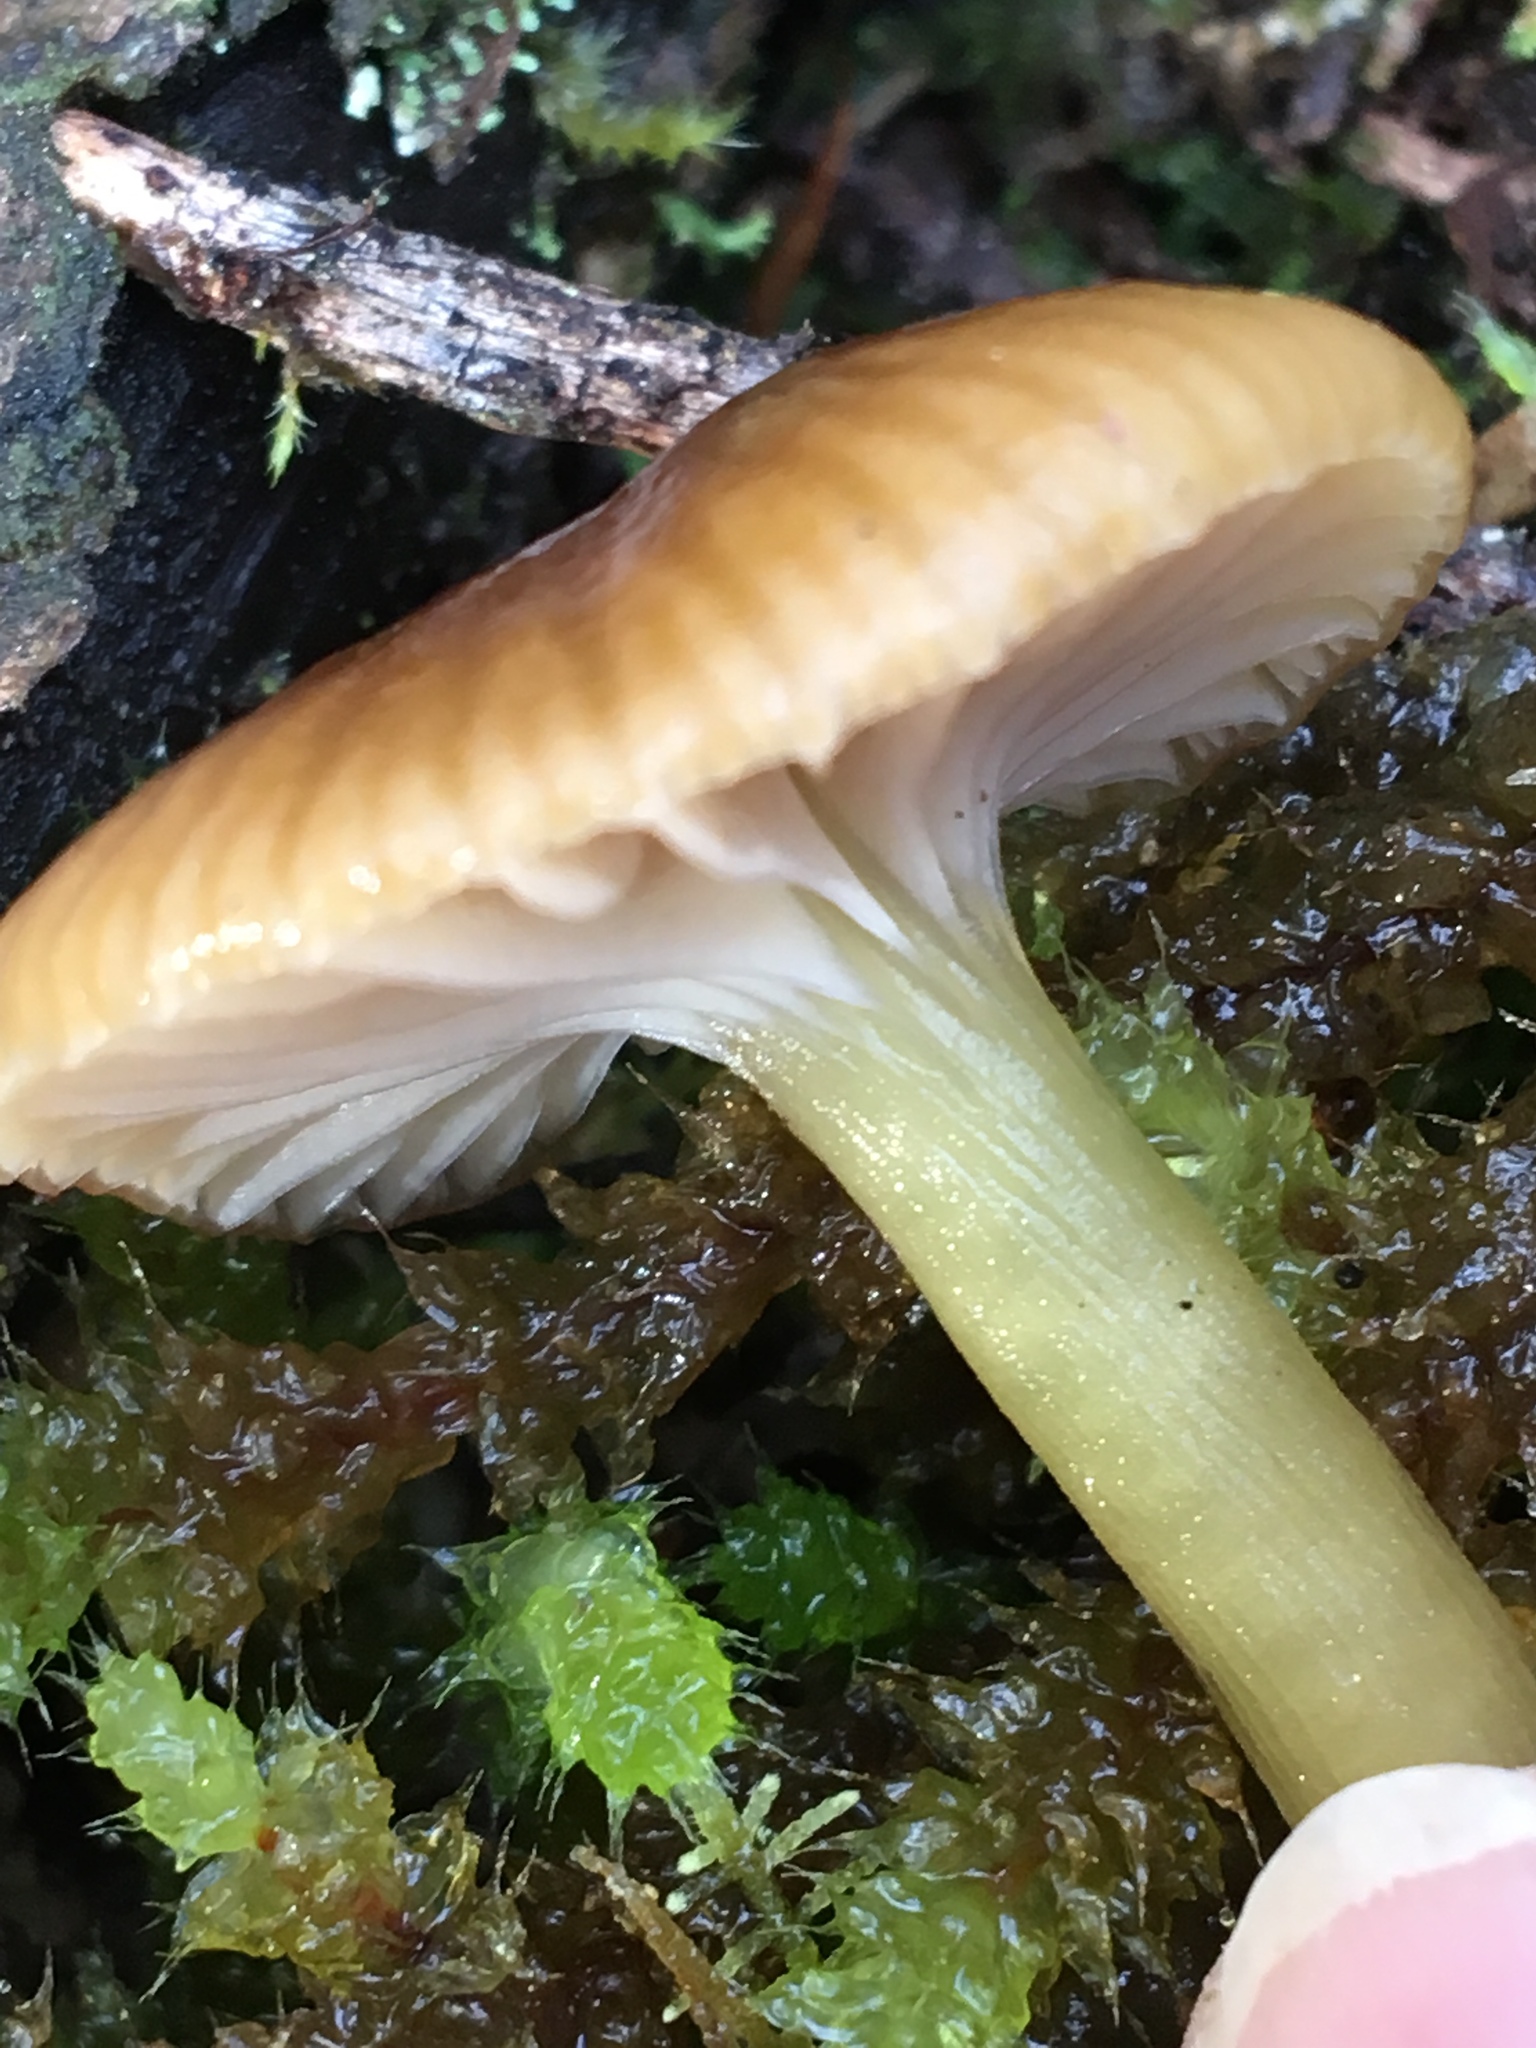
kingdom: Fungi
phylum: Basidiomycota
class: Agaricomycetes
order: Agaricales
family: Hygrophoraceae
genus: Gliophorus
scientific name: Gliophorus graminicolor
